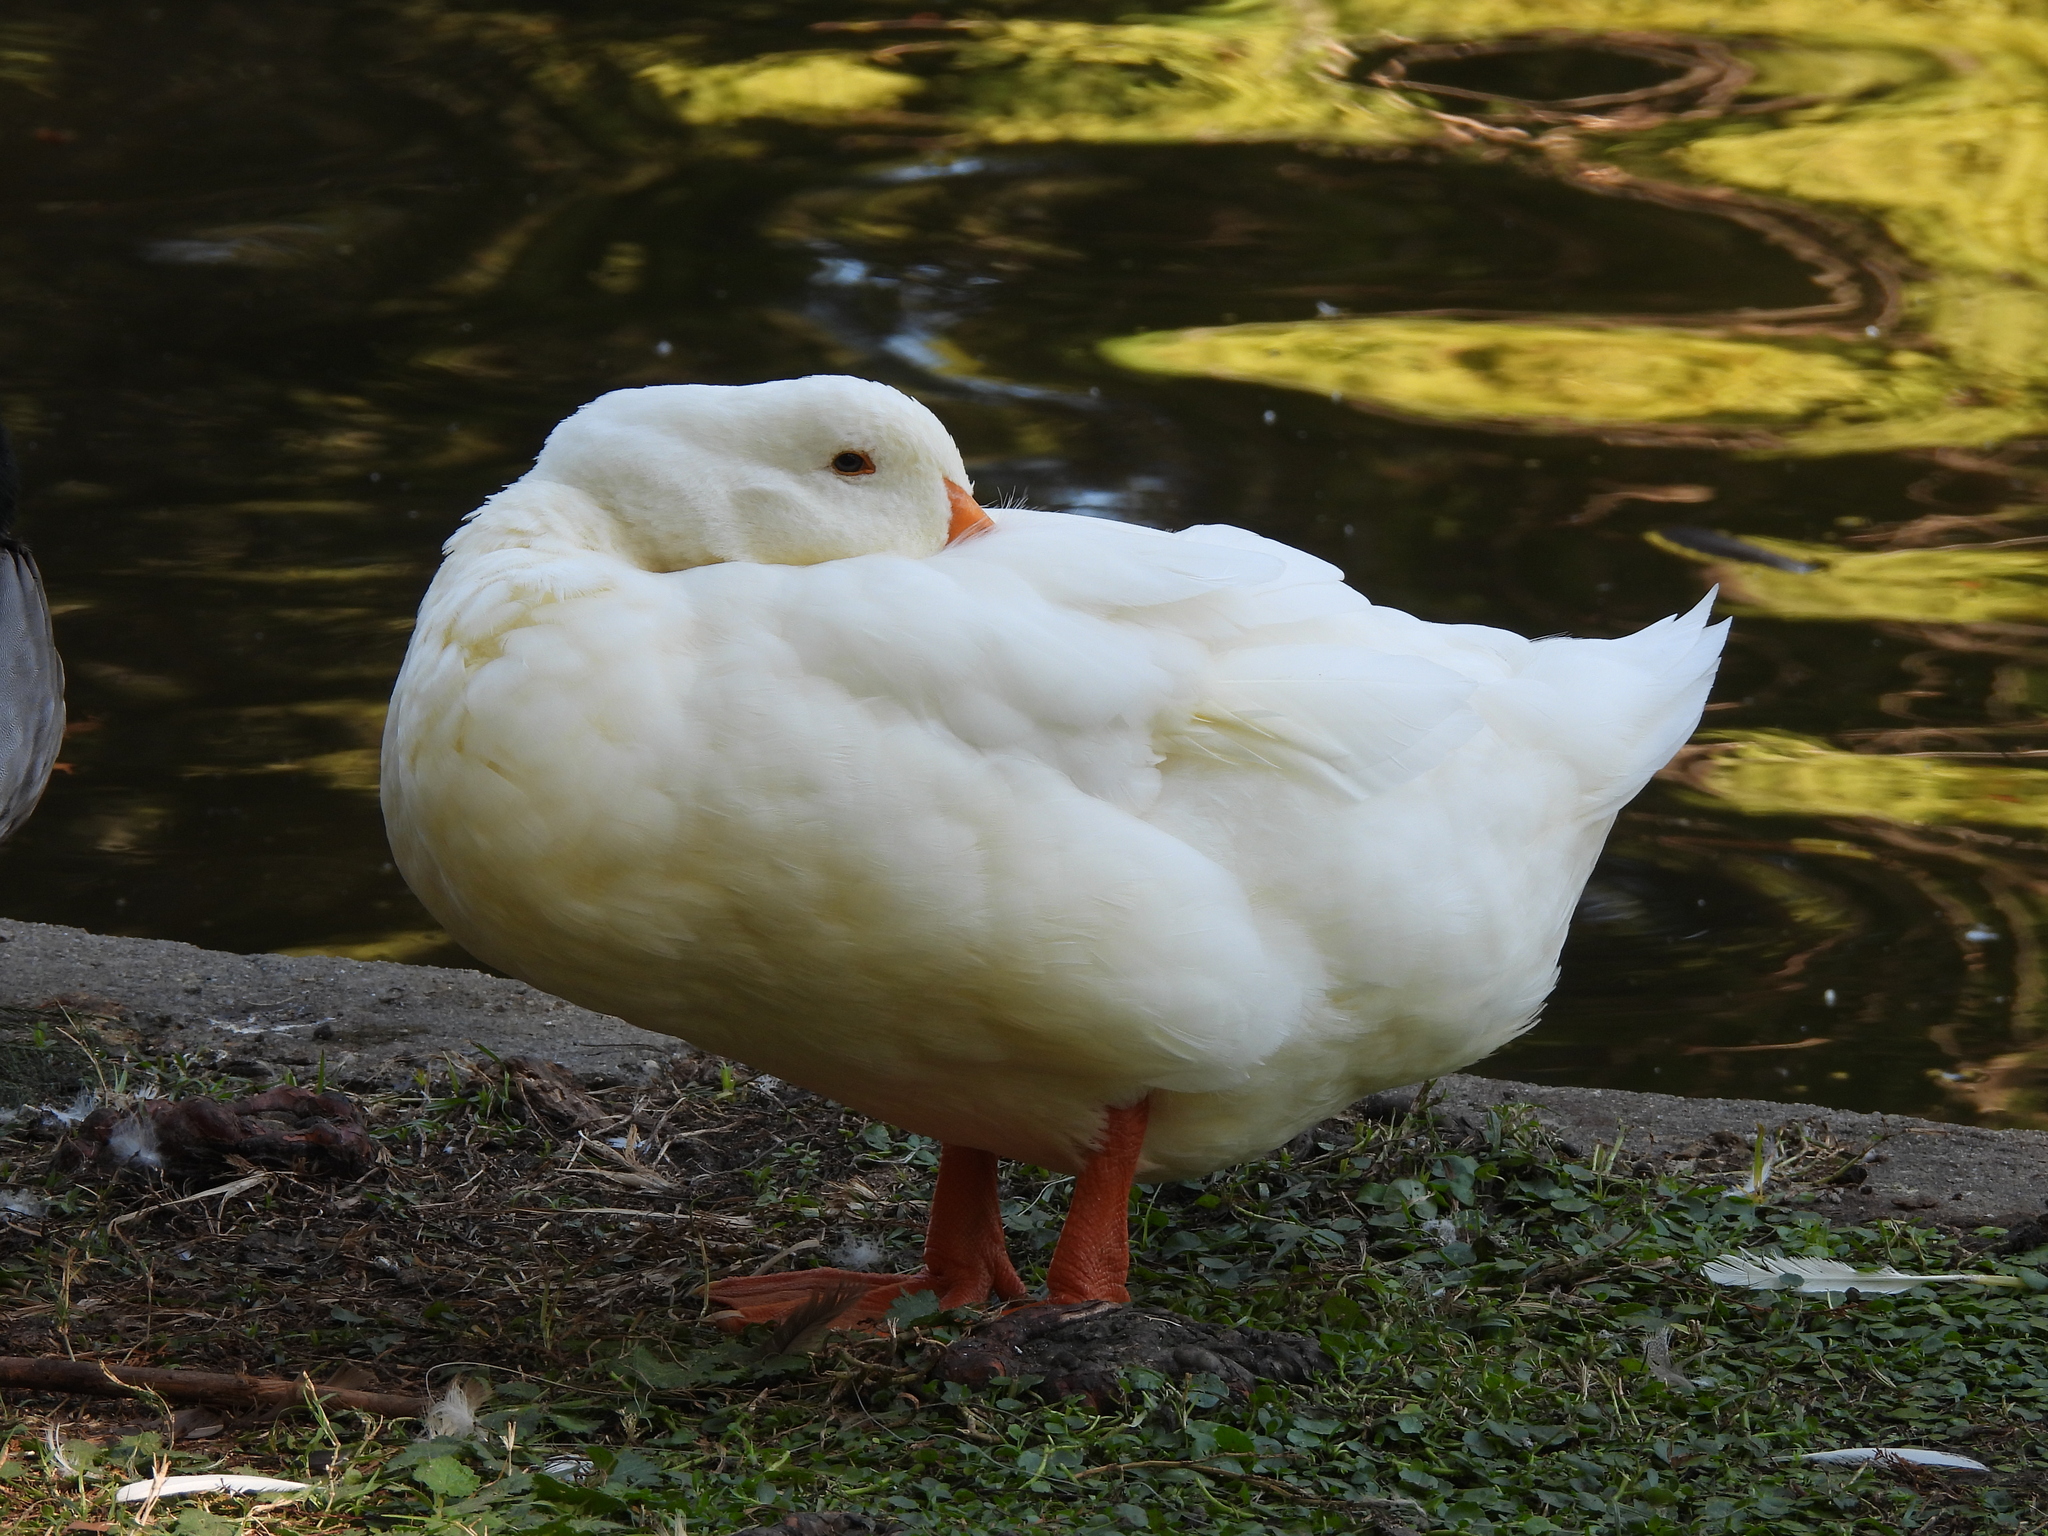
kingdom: Animalia
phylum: Chordata
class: Aves
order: Anseriformes
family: Anatidae
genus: Anas
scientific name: Anas platyrhynchos
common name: Mallard
